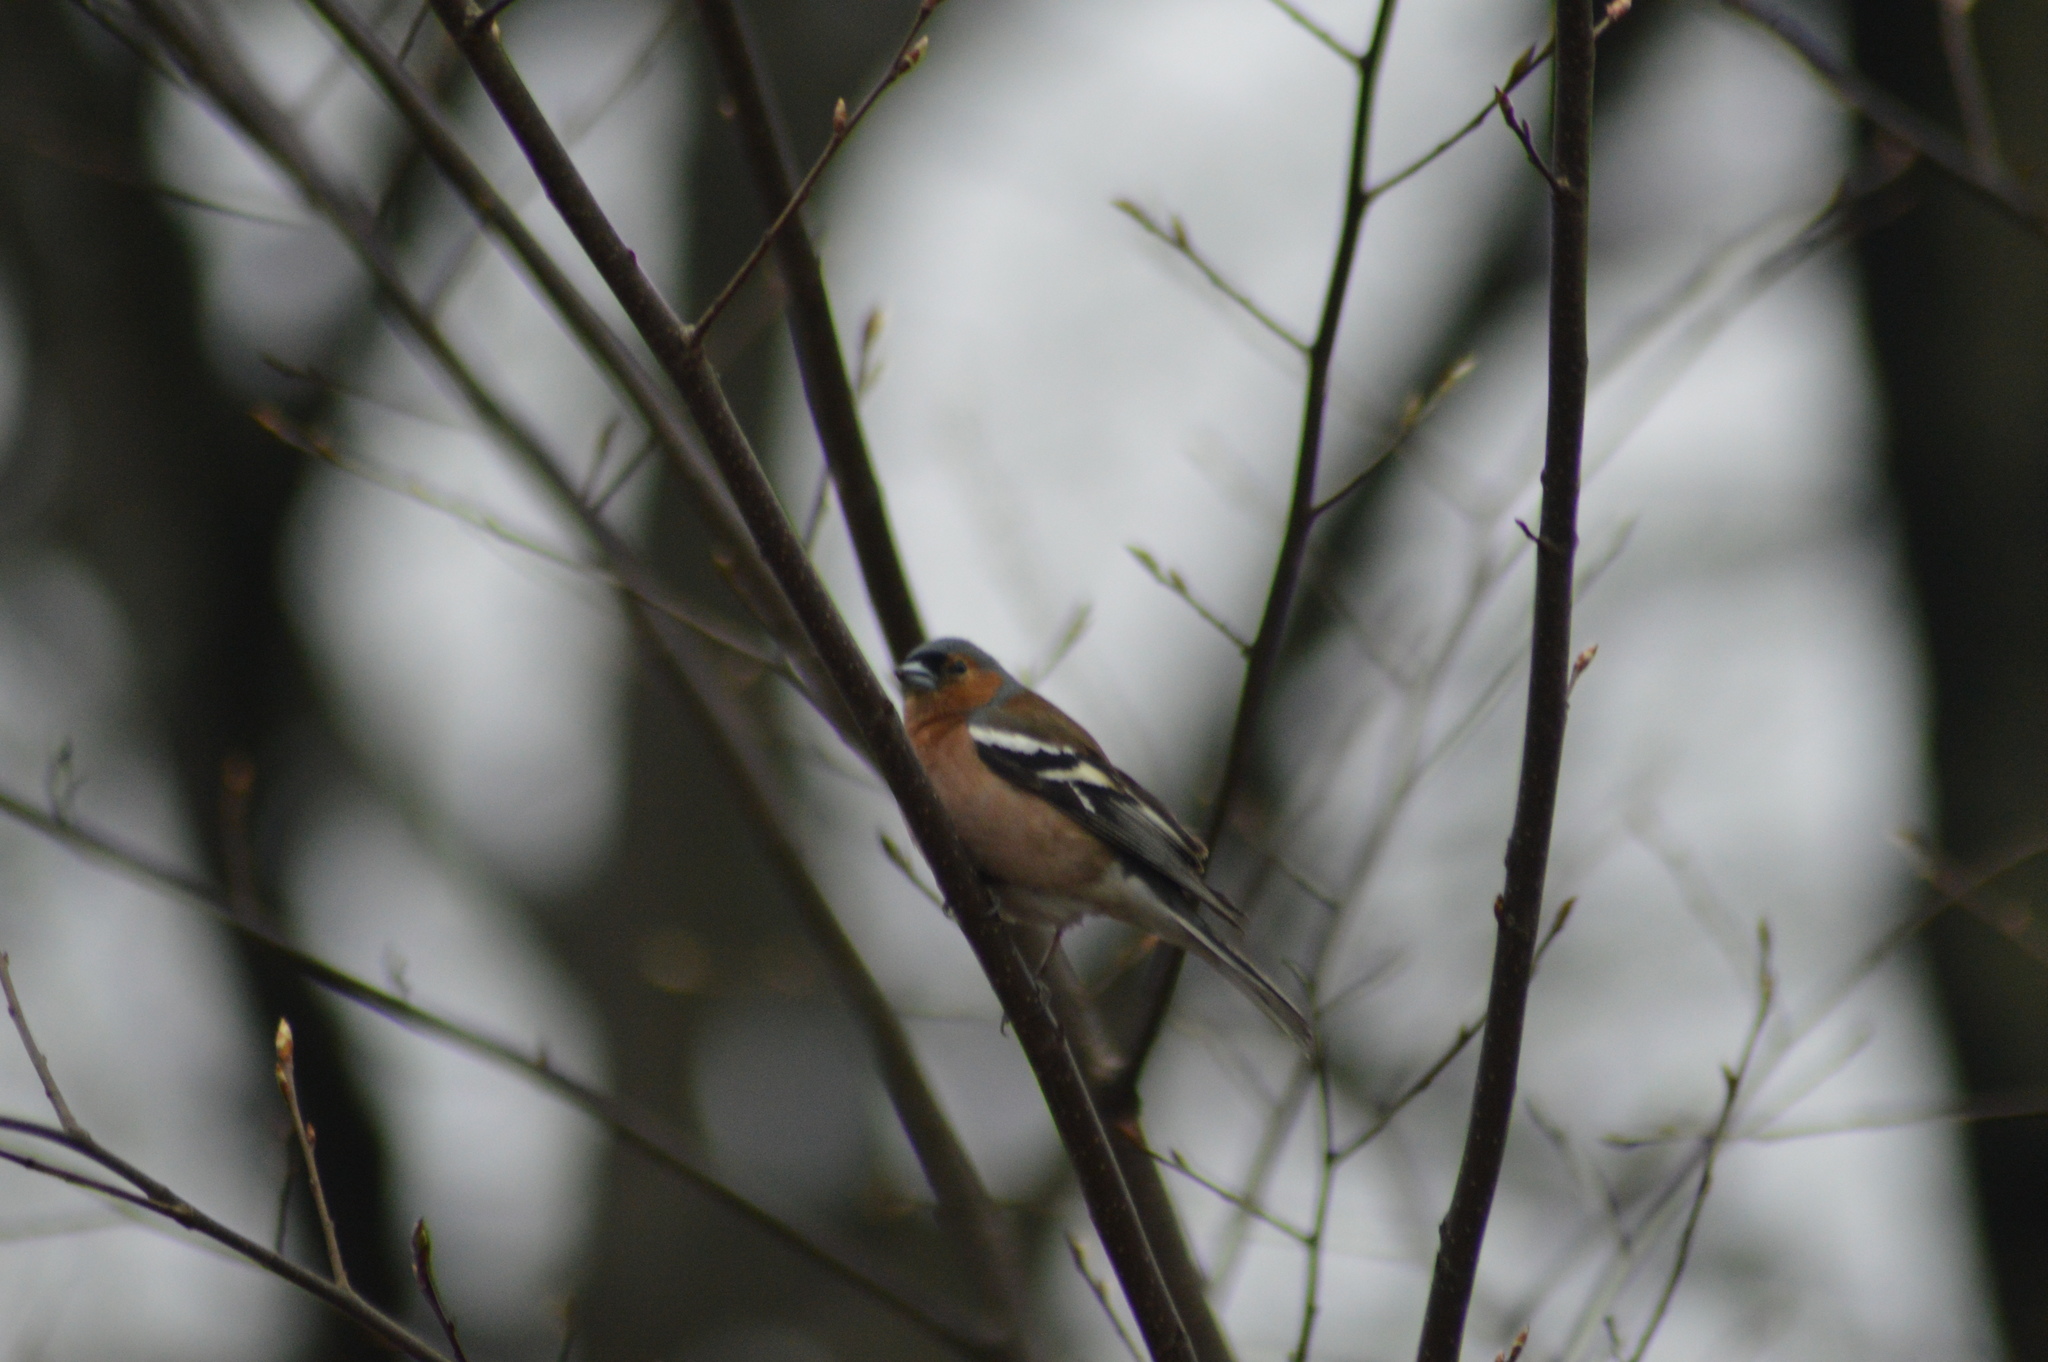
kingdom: Animalia
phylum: Chordata
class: Aves
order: Passeriformes
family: Fringillidae
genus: Fringilla
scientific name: Fringilla coelebs
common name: Common chaffinch
